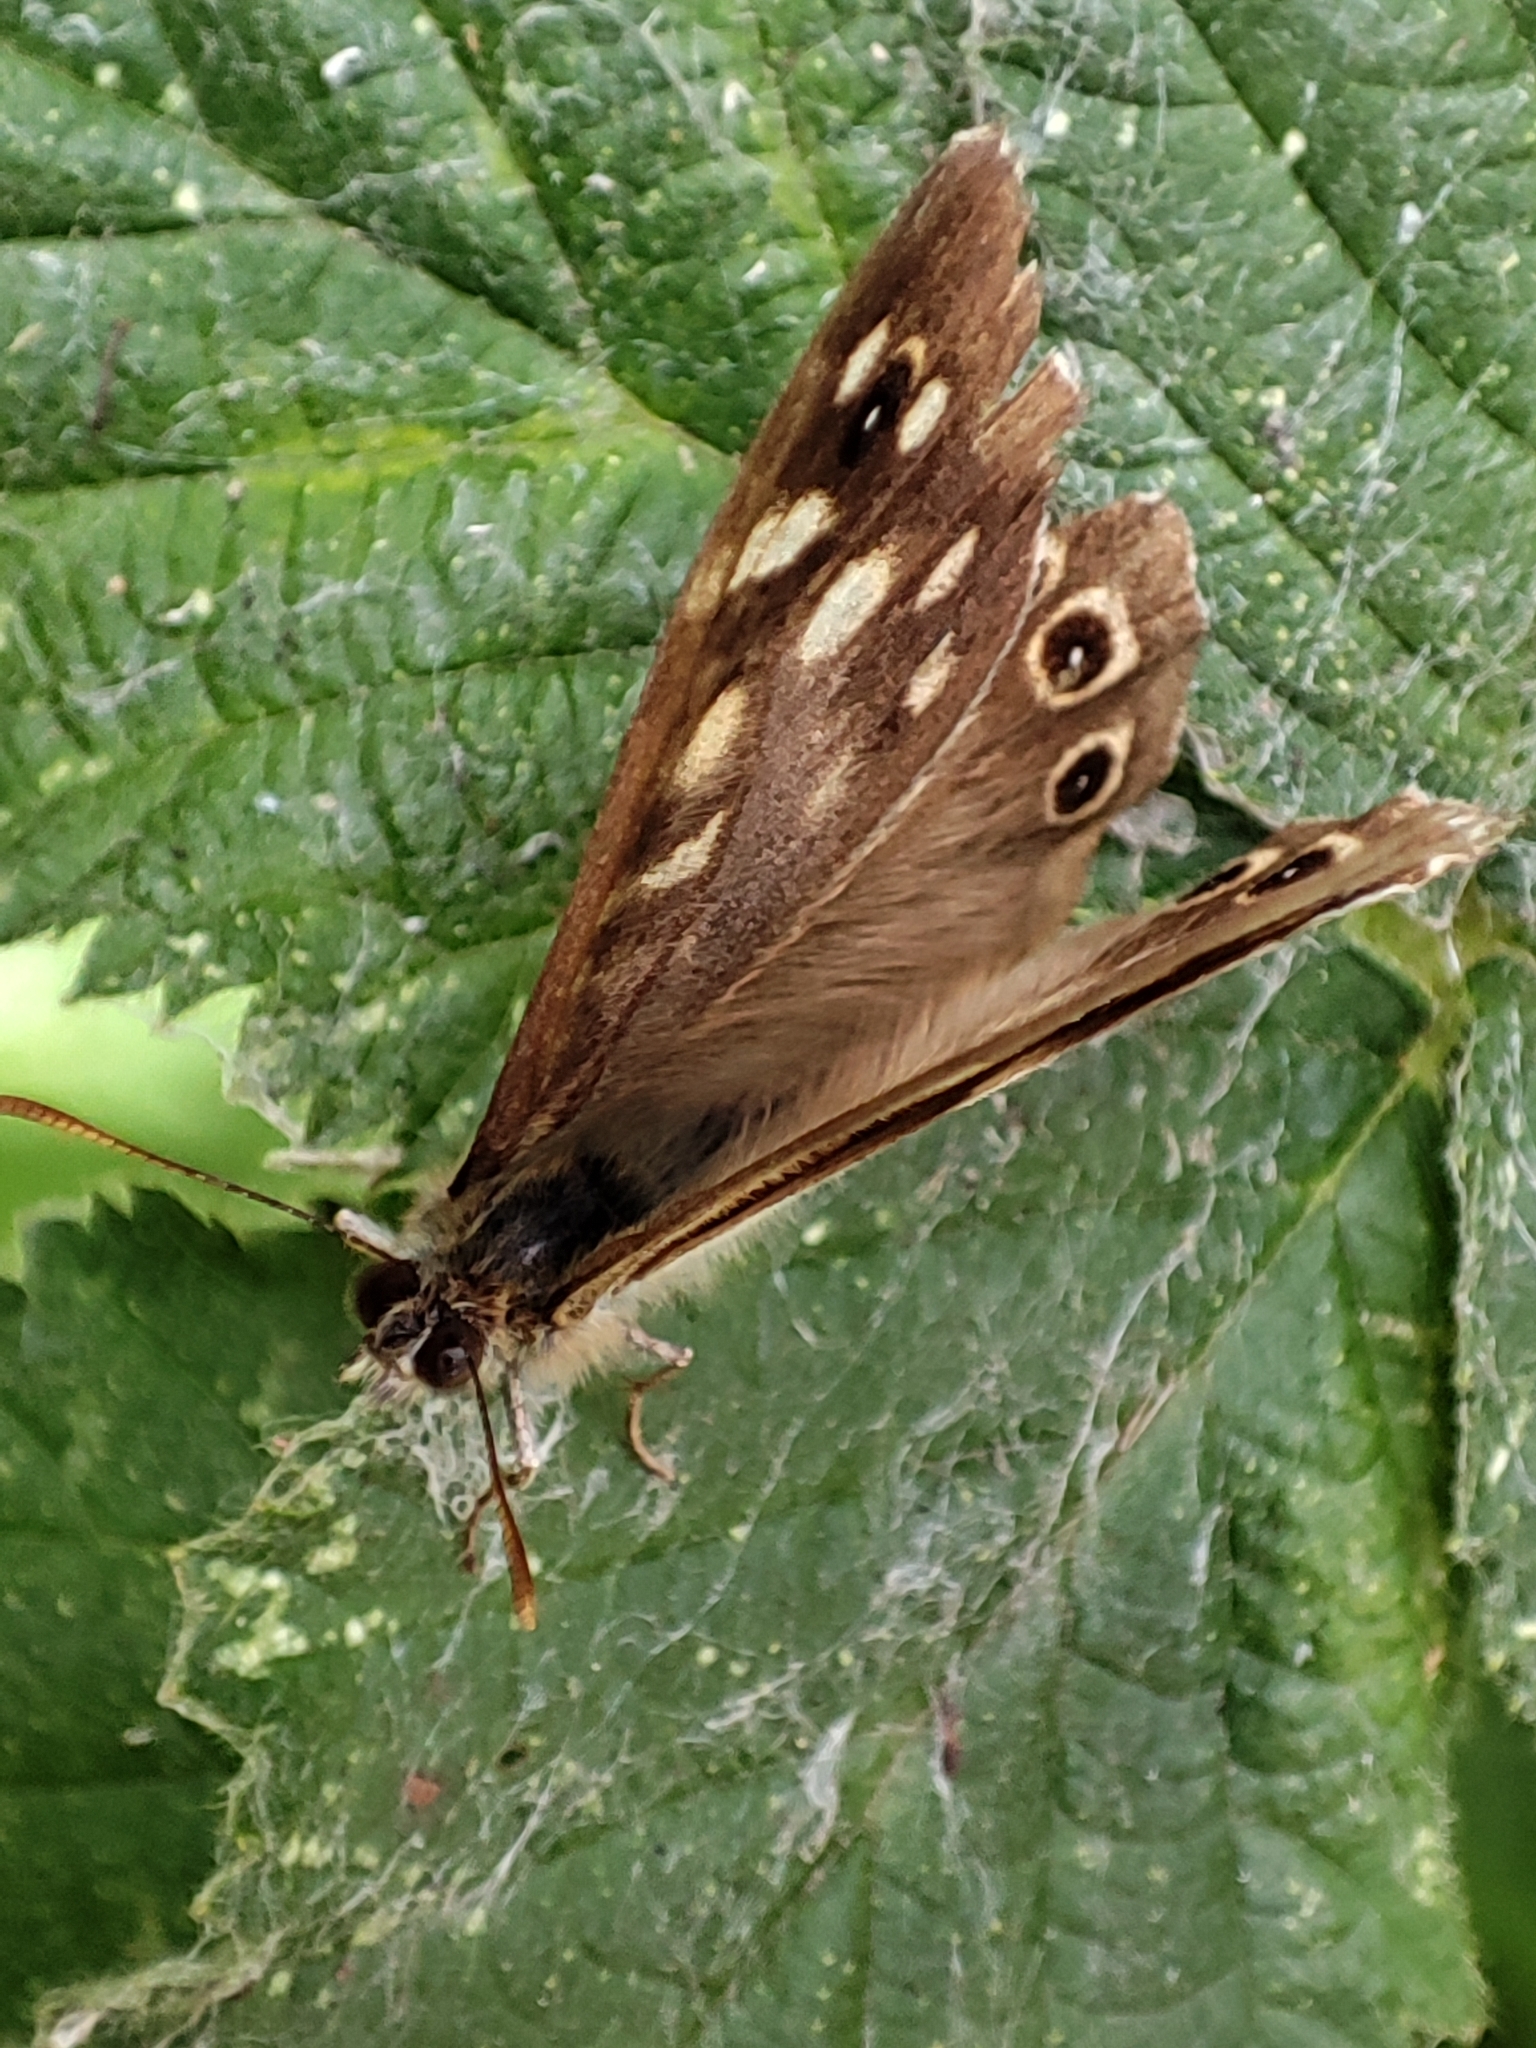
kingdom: Animalia
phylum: Arthropoda
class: Insecta
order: Lepidoptera
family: Nymphalidae
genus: Pararge
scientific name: Pararge aegeria
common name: Speckled wood
